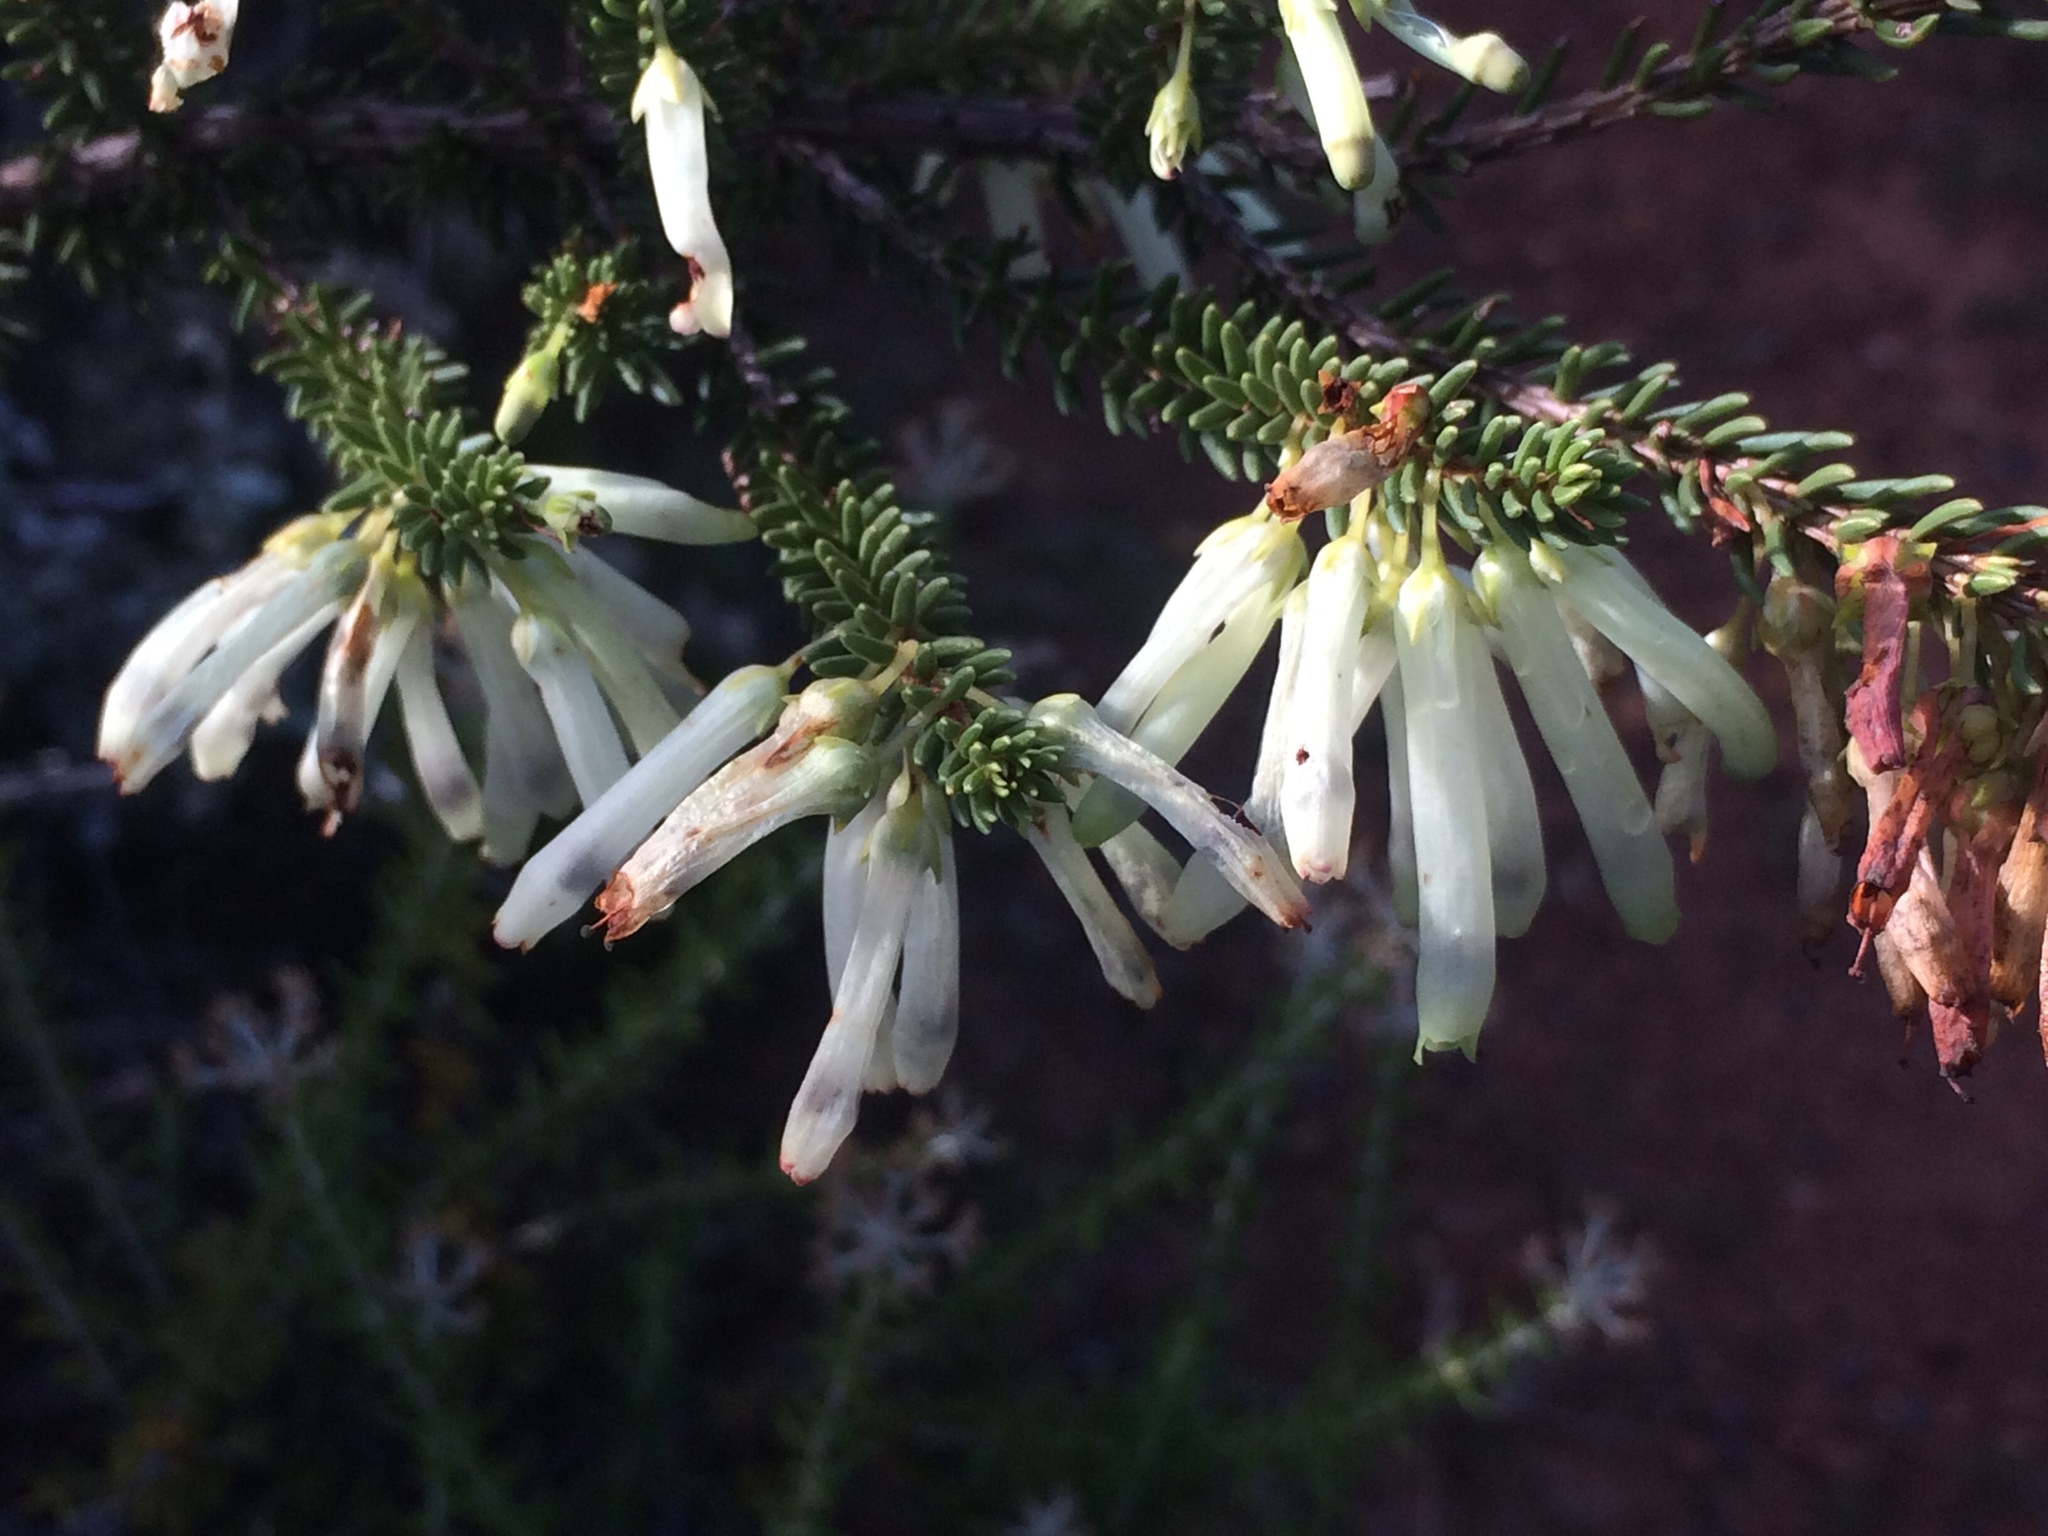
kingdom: Plantae
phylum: Tracheophyta
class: Magnoliopsida
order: Ericales
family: Ericaceae
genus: Erica
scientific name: Erica mammosa
